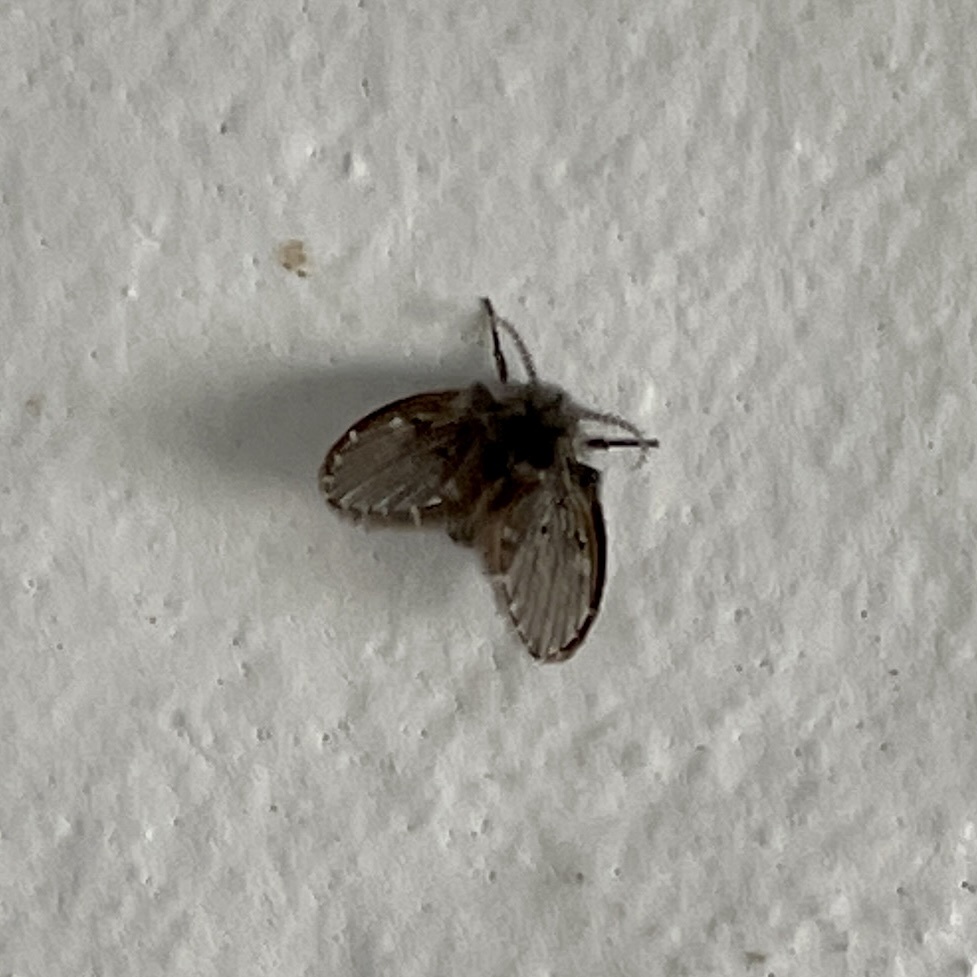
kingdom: Animalia
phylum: Arthropoda
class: Insecta
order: Diptera
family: Psychodidae
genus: Clogmia
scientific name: Clogmia albipunctatus
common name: White-spotted moth fly
